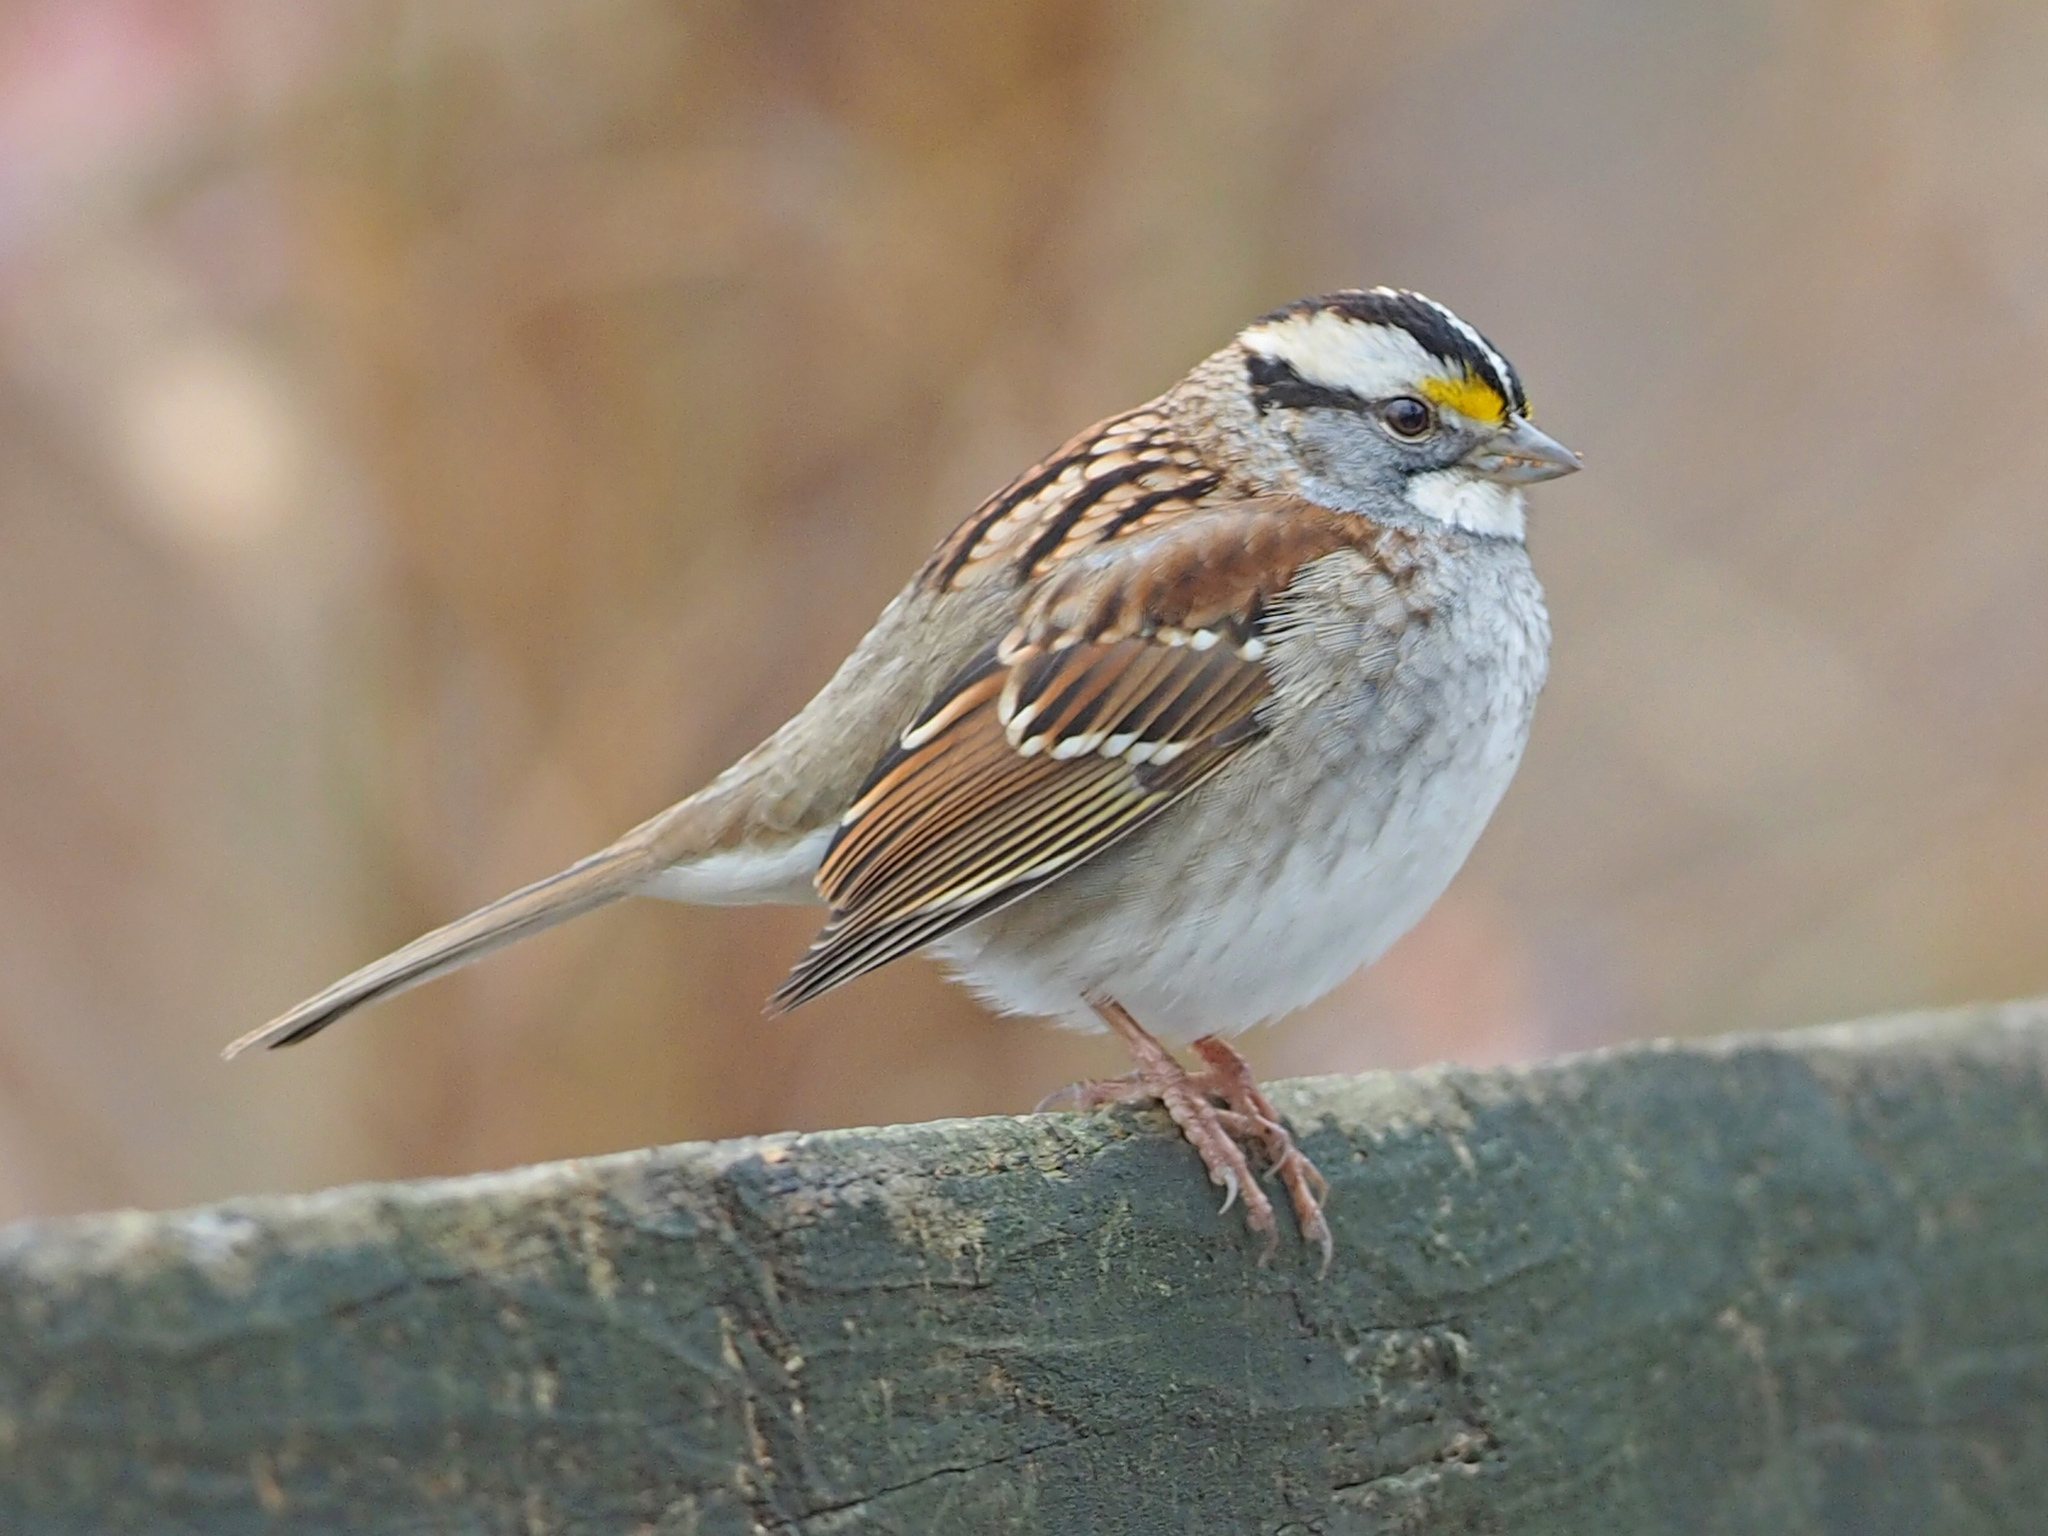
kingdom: Animalia
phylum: Chordata
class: Aves
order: Passeriformes
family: Passerellidae
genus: Zonotrichia
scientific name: Zonotrichia albicollis
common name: White-throated sparrow
